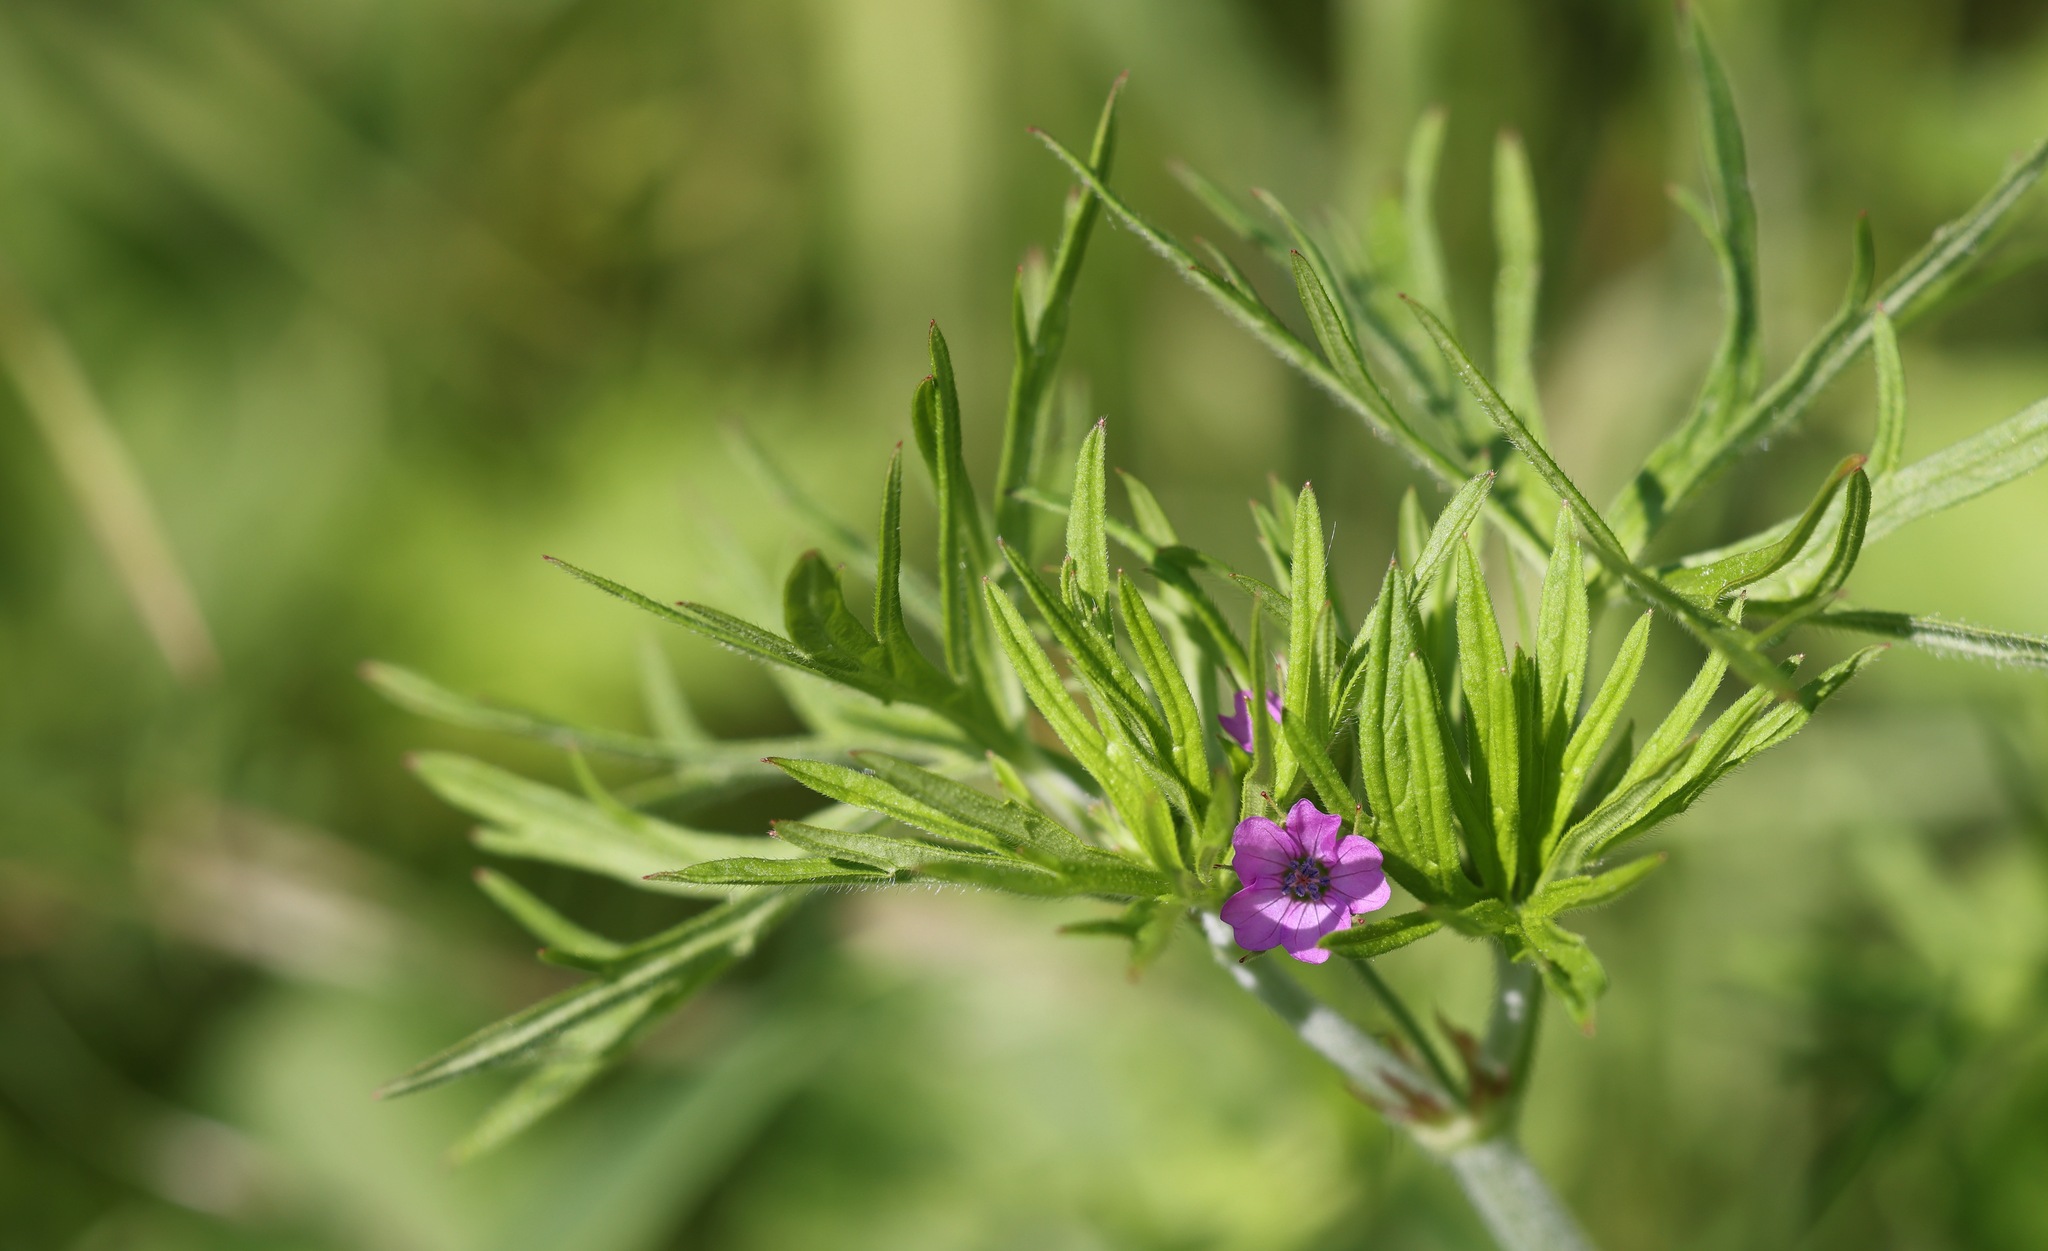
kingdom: Plantae
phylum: Tracheophyta
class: Magnoliopsida
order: Geraniales
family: Geraniaceae
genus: Geranium
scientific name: Geranium dissectum
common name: Cut-leaved crane's-bill
